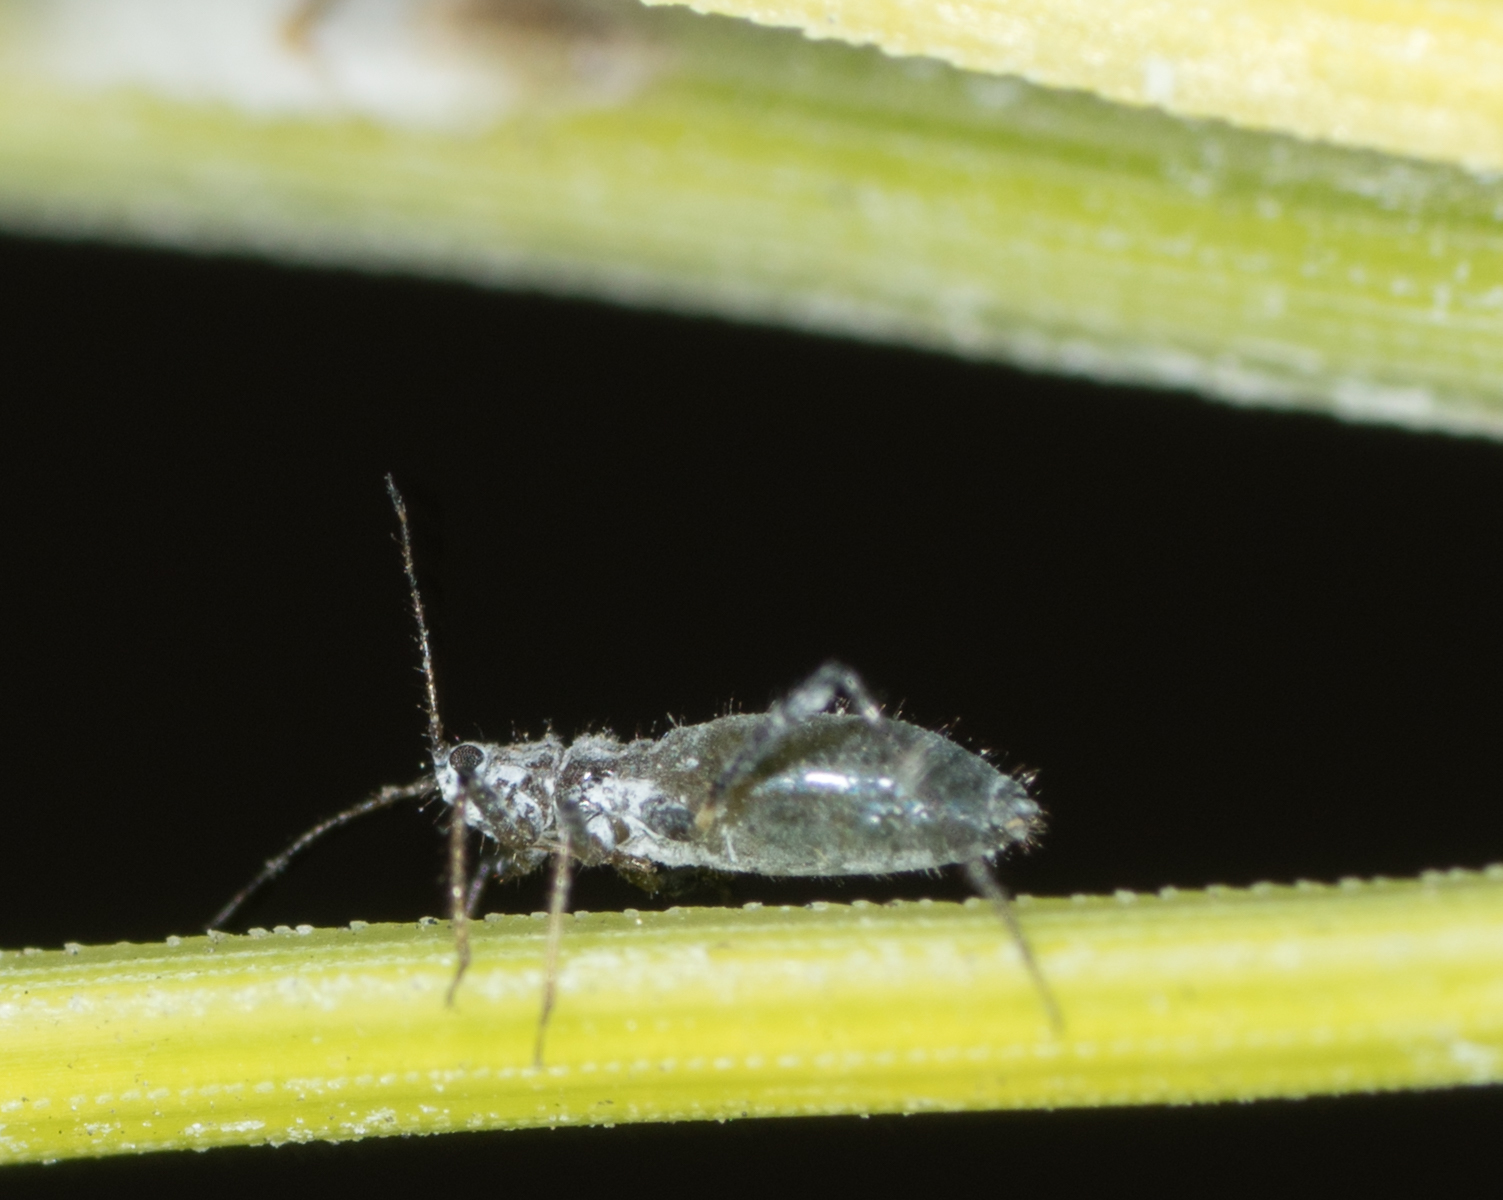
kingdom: Animalia
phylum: Arthropoda
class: Insecta
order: Hemiptera
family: Aphididae
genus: Eulachnus
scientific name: Eulachnus rileyi
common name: Active gray pine needle aphid
